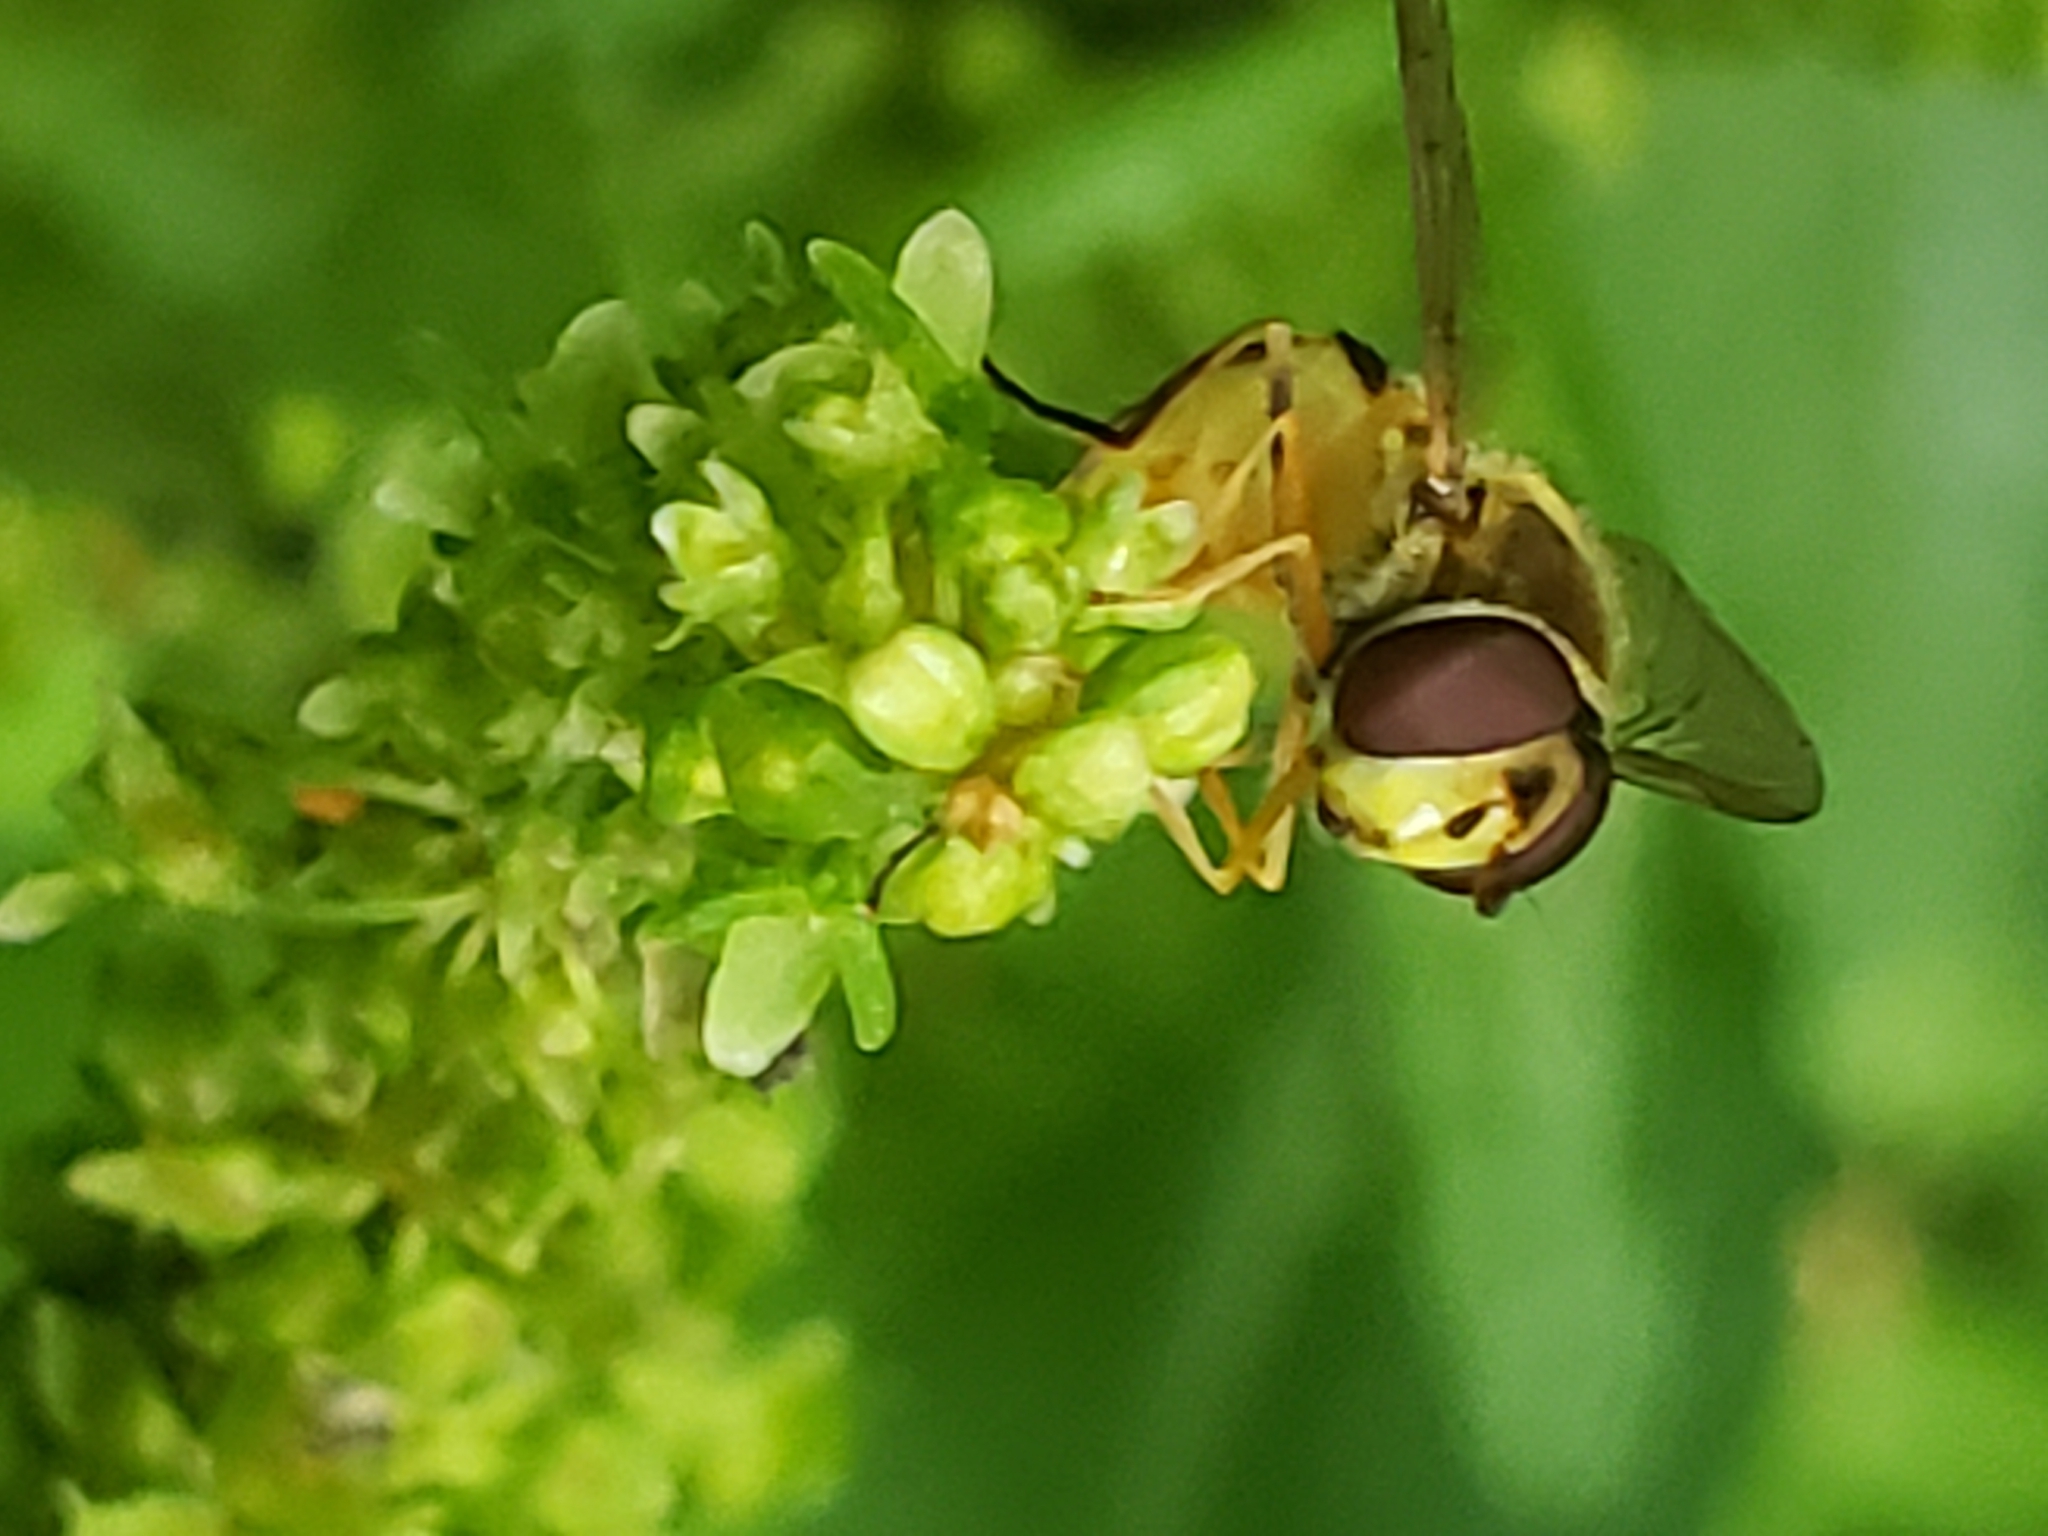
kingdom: Animalia
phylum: Arthropoda
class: Insecta
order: Diptera
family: Syrphidae
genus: Syrphus
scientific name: Syrphus rectus
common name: Yellow-legged flower fly
